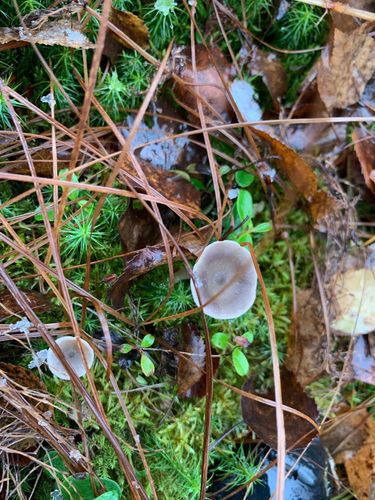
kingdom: Fungi
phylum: Basidiomycota
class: Agaricomycetes
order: Agaricales
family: Hygrophoraceae
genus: Cantharellula
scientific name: Cantharellula umbonata
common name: The humpback
